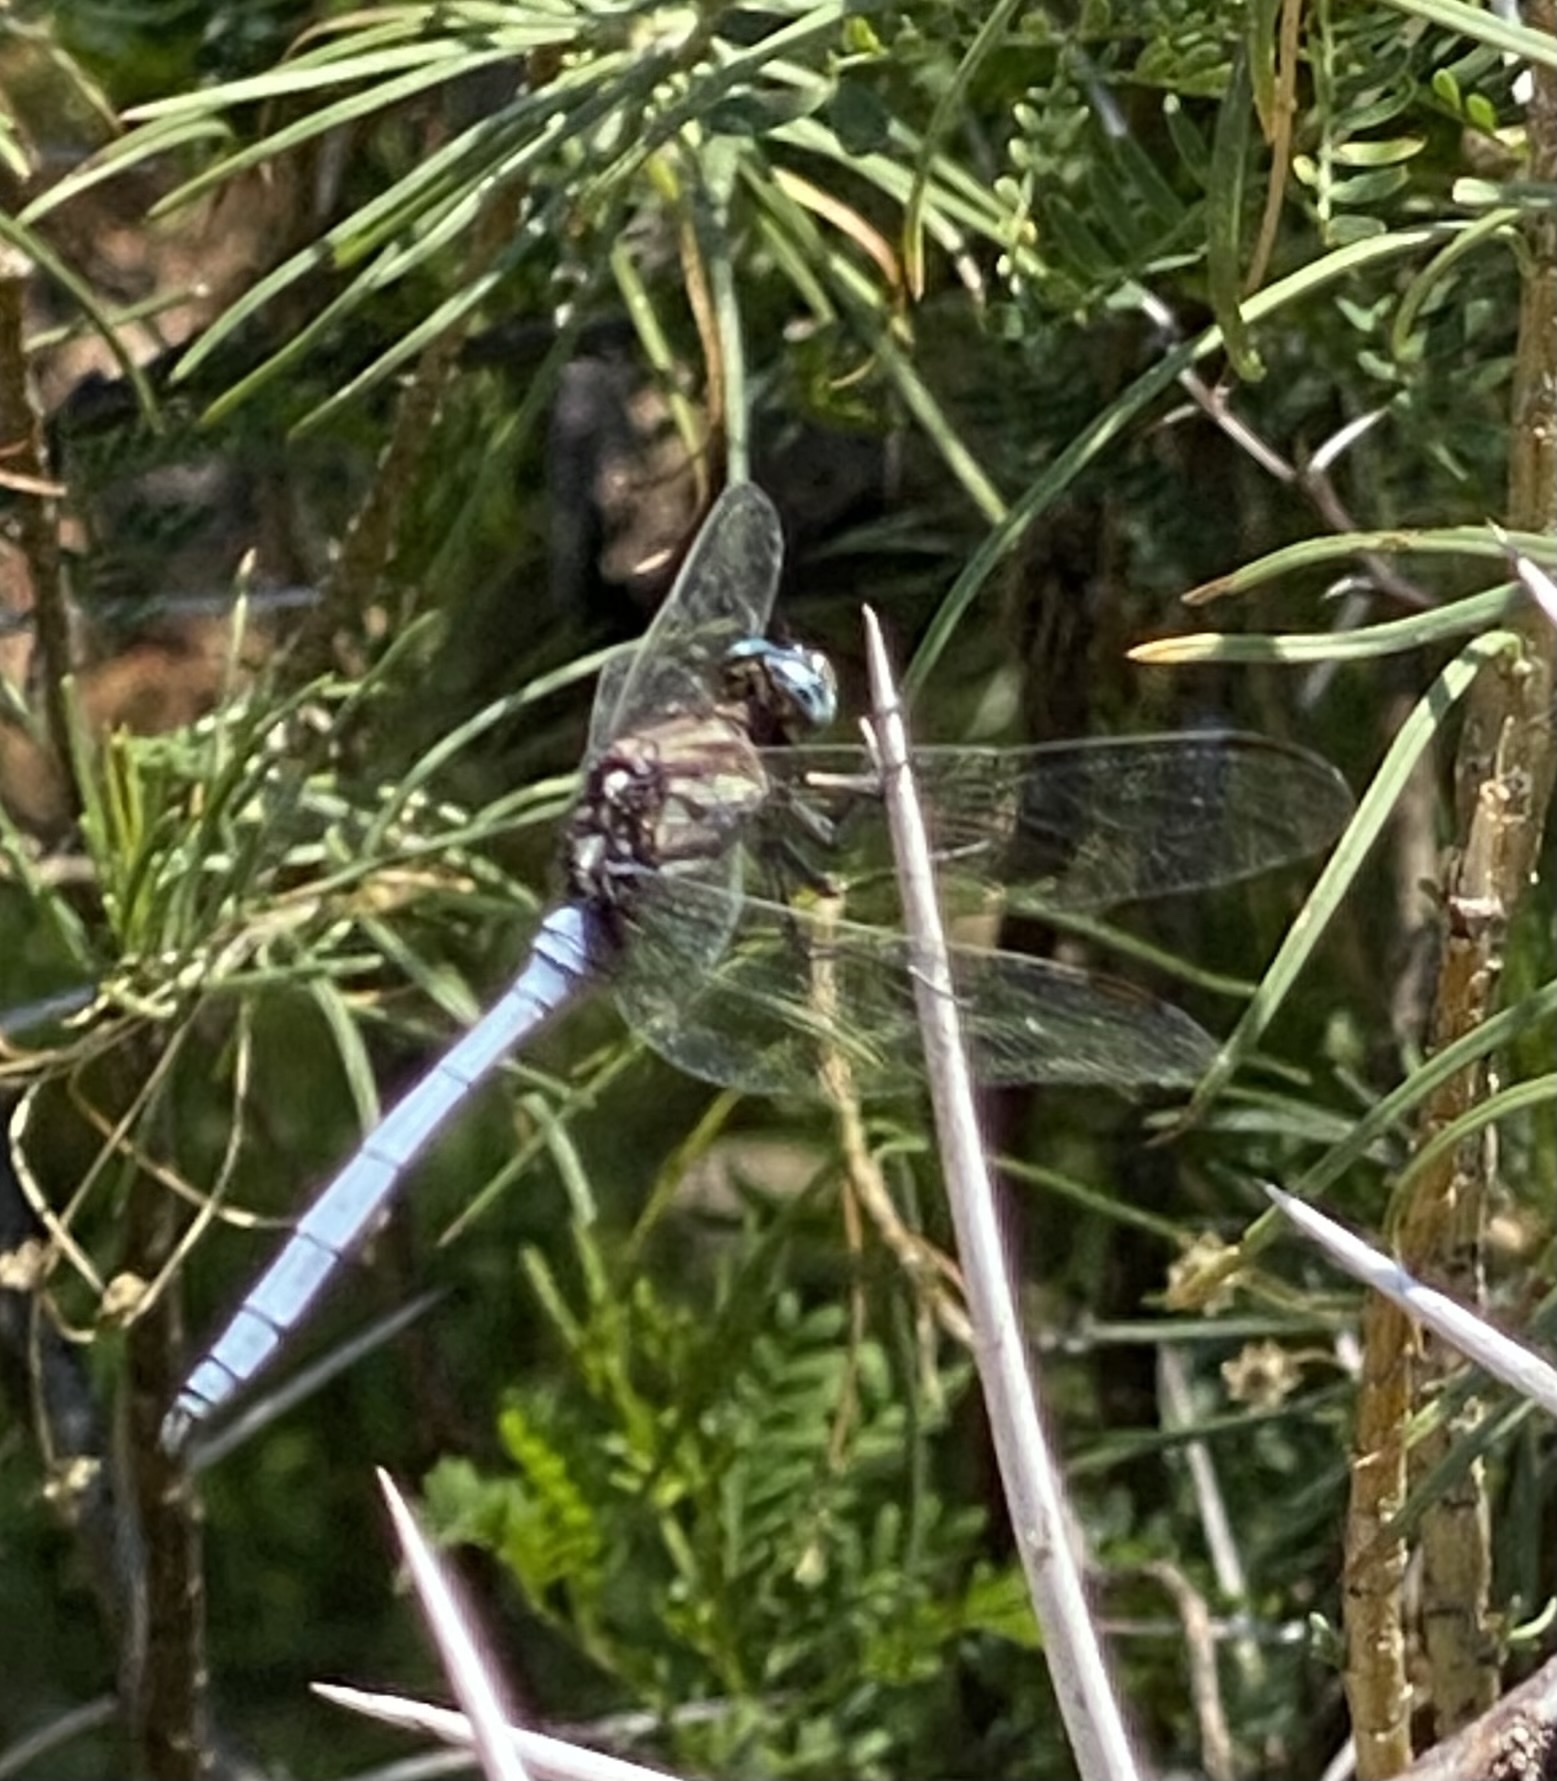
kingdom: Animalia
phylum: Arthropoda
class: Insecta
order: Odonata
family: Libellulidae
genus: Orthetrum
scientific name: Orthetrum julia
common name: Julia skimmer
